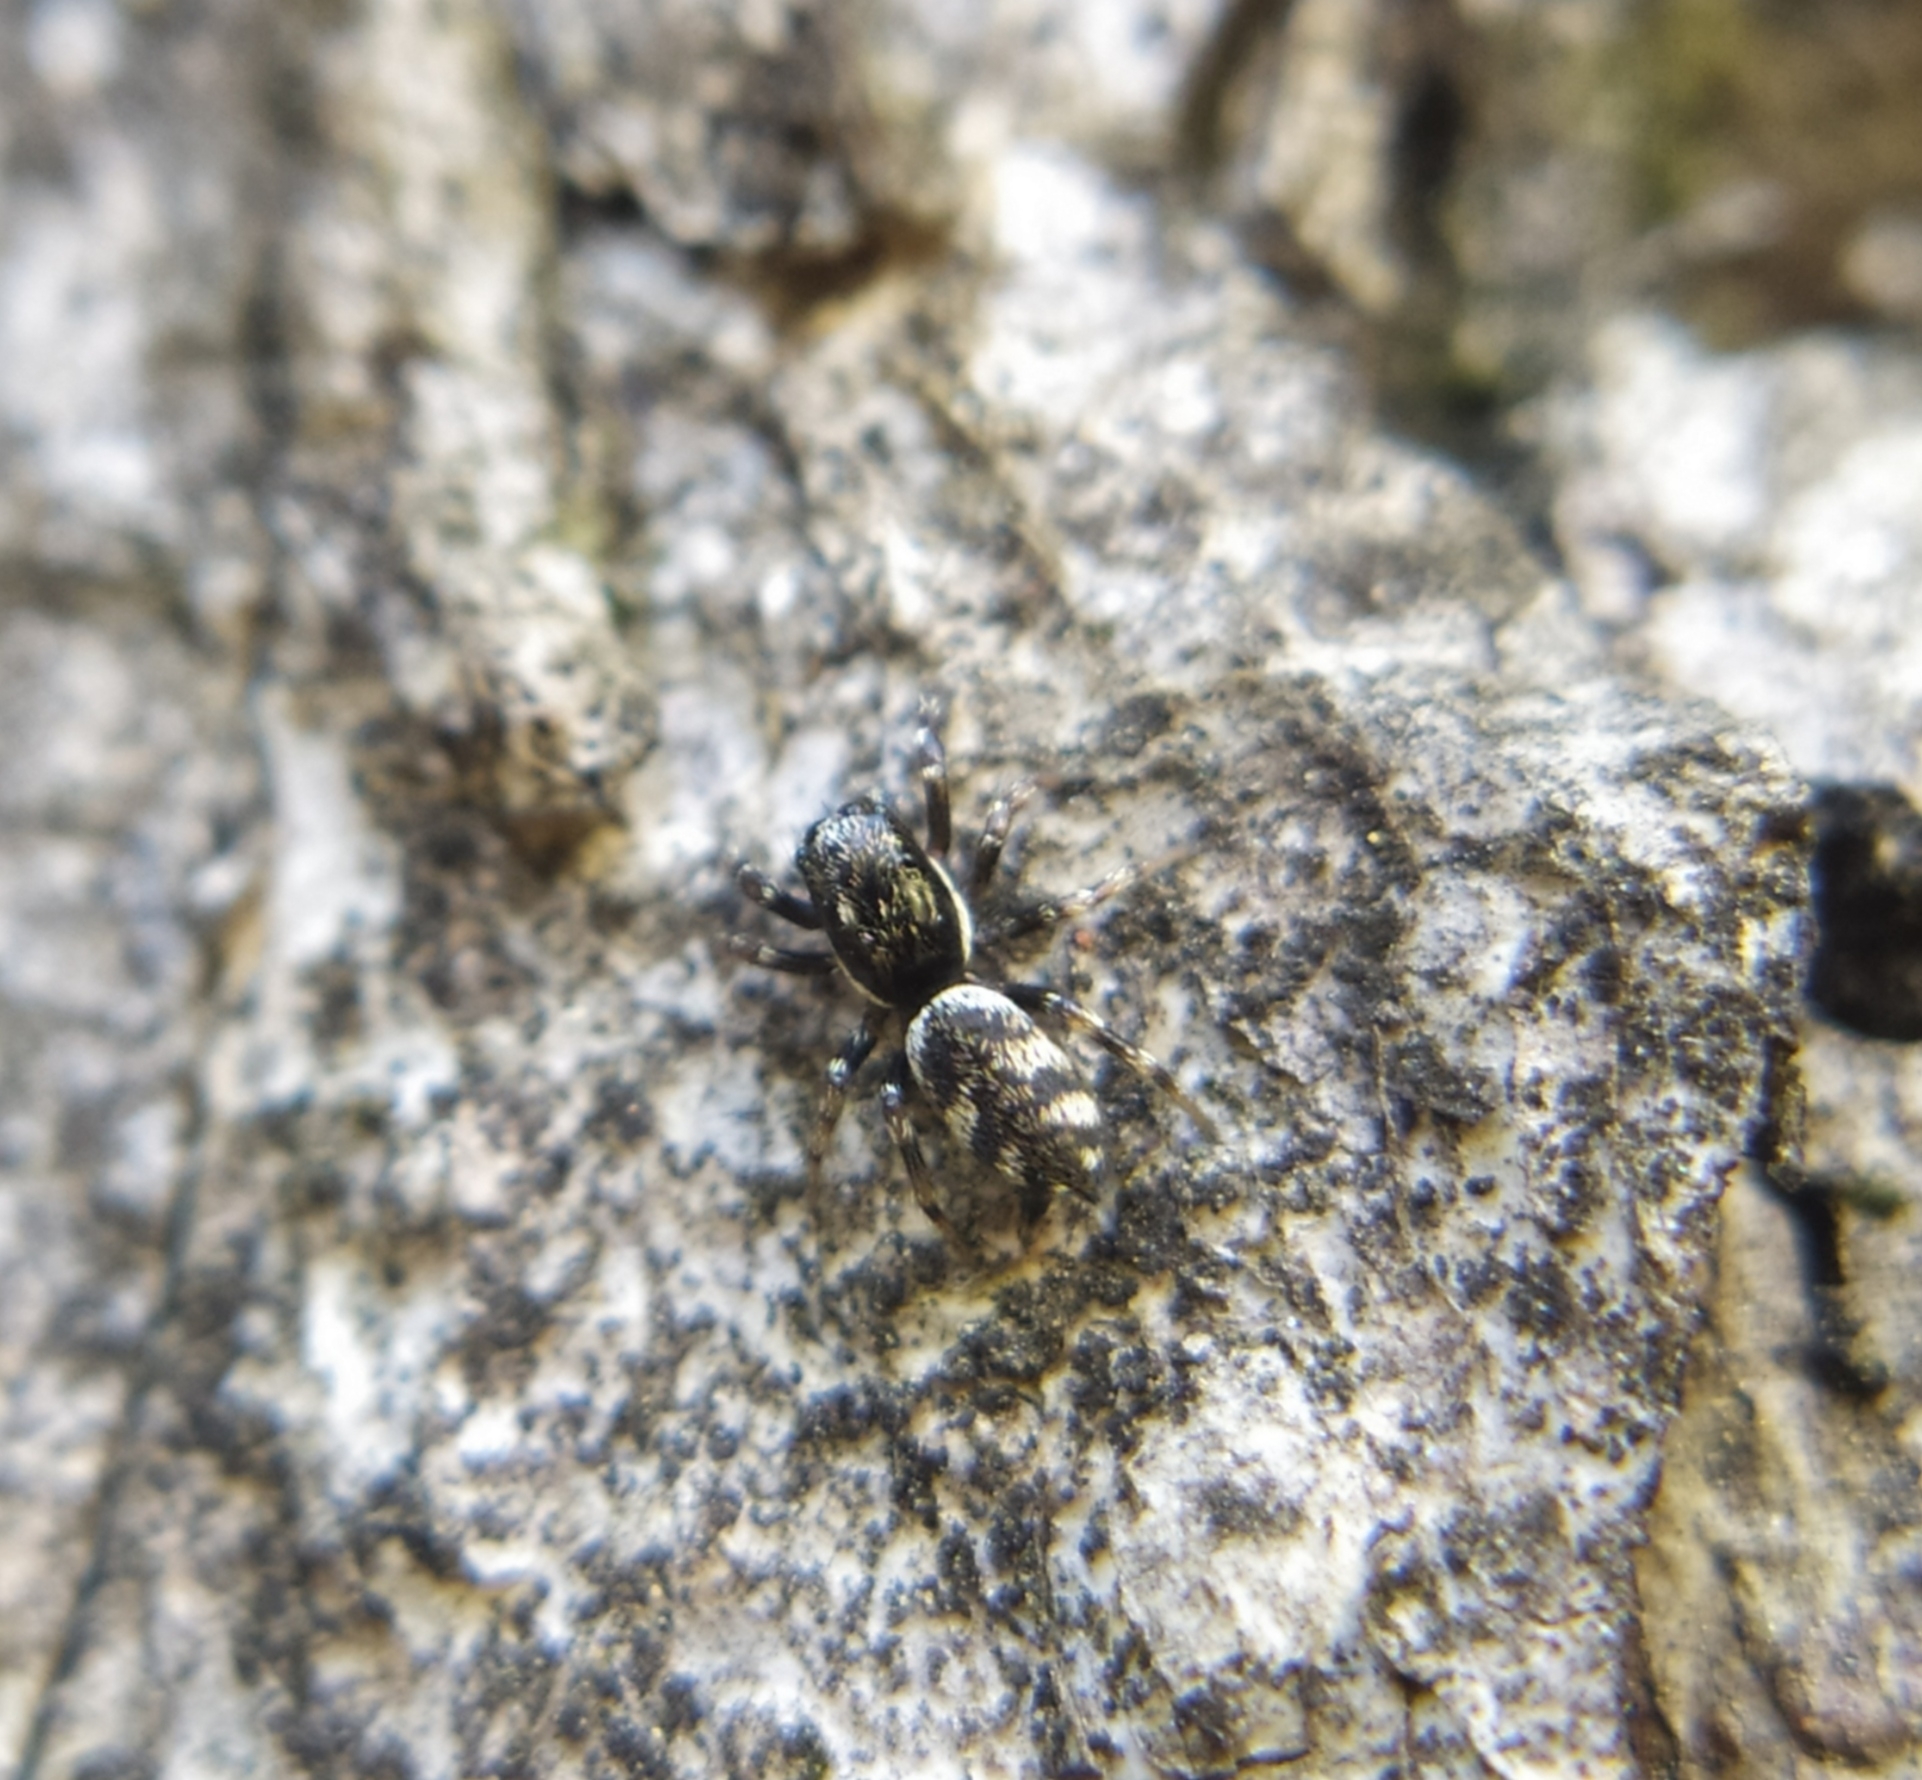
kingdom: Animalia
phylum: Arthropoda
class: Arachnida
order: Araneae
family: Salticidae
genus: Salticus
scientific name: Salticus scenicus
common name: Zebra jumper
